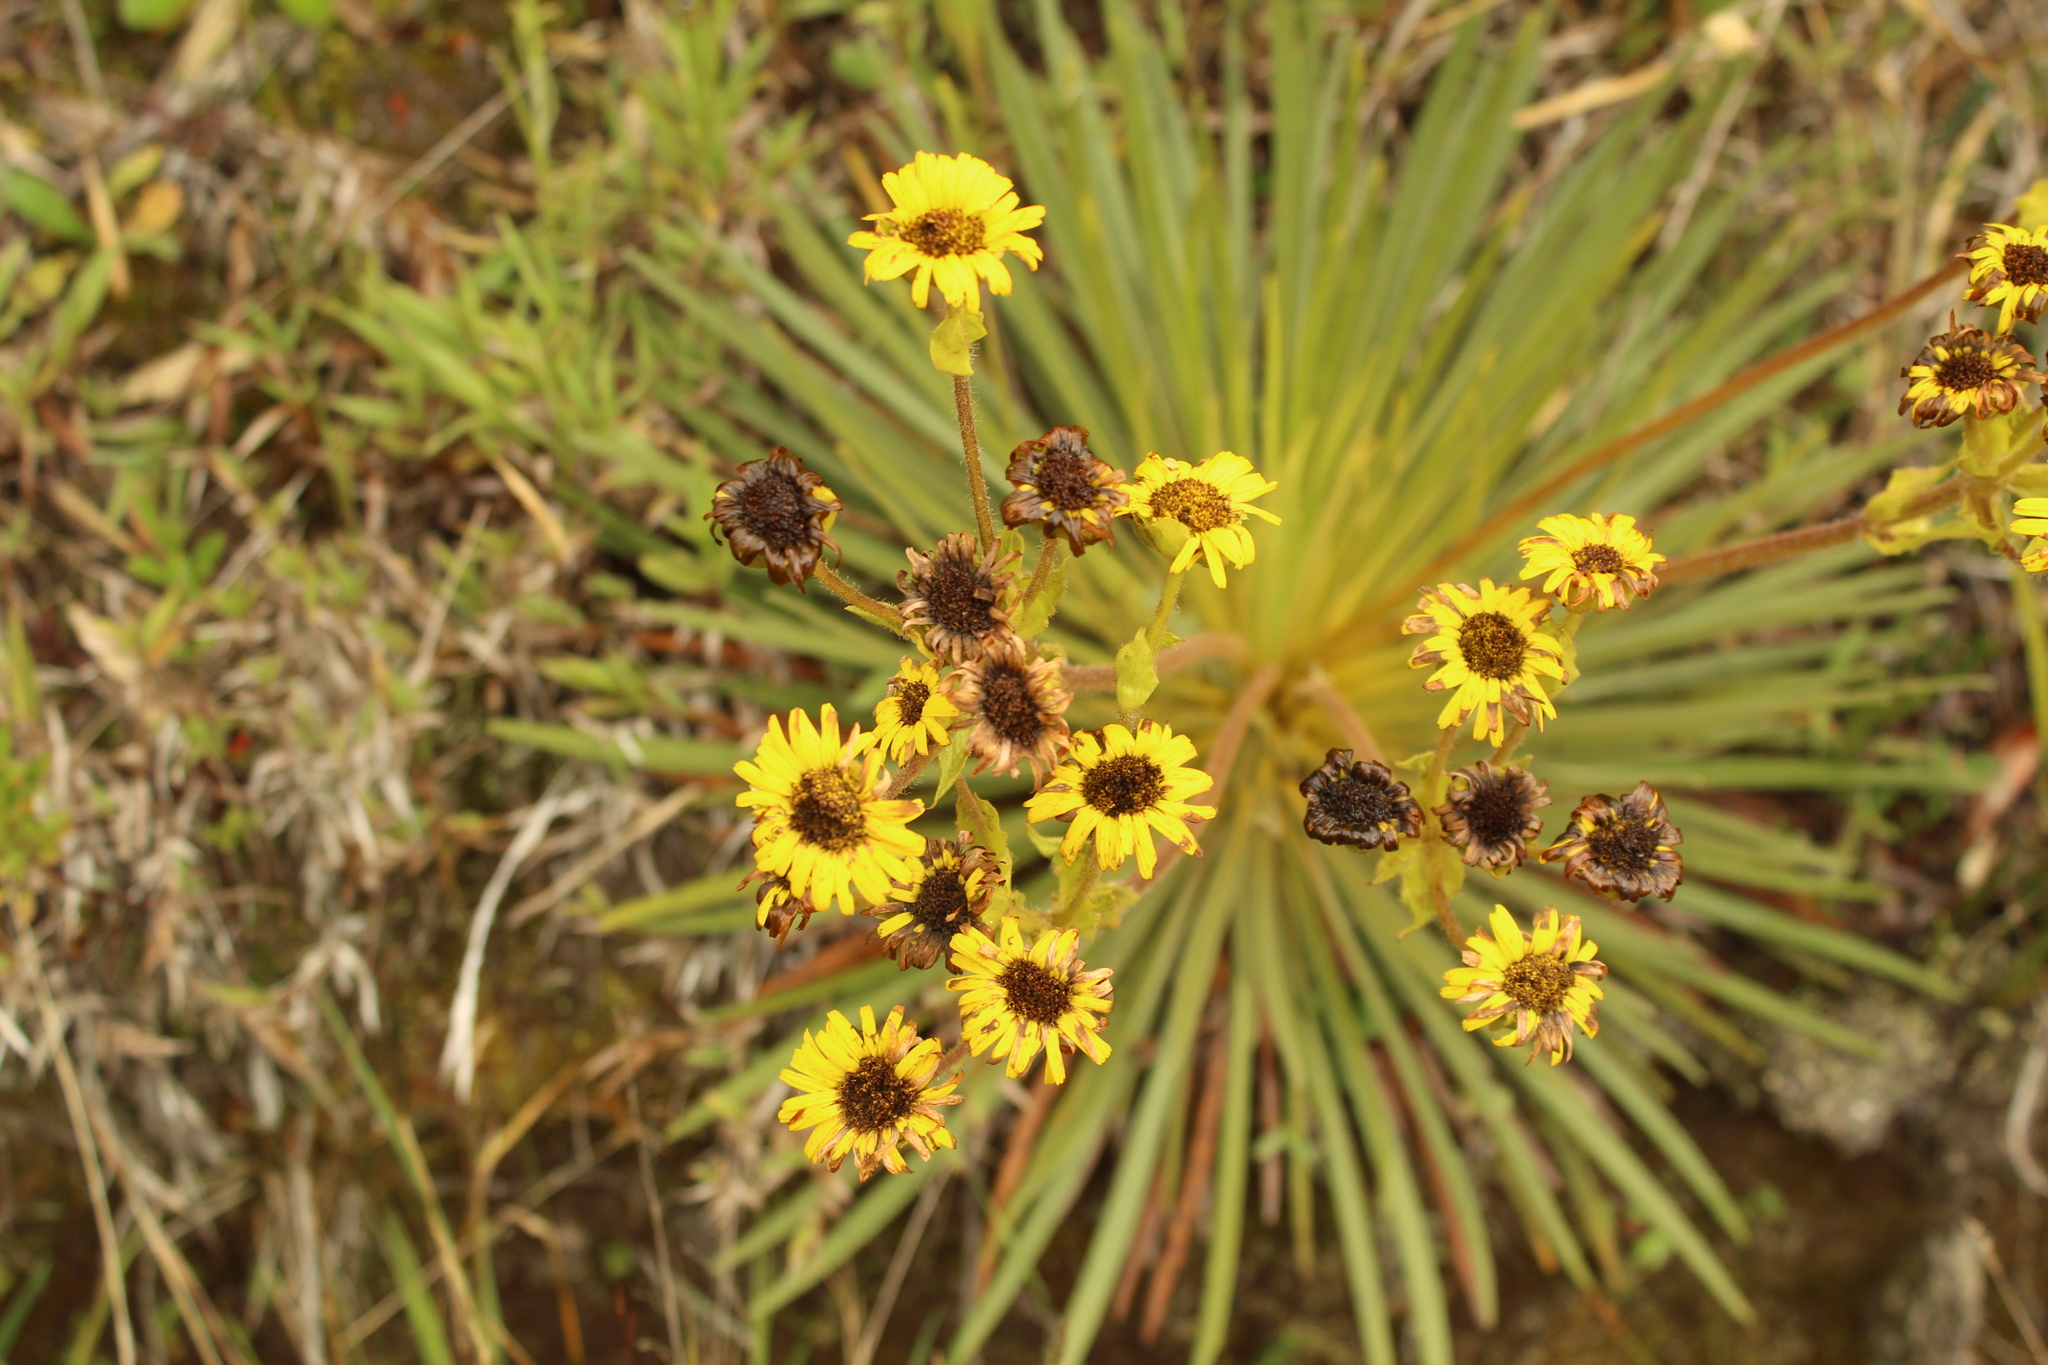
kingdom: Plantae
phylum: Tracheophyta
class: Magnoliopsida
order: Asterales
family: Asteraceae
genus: Espeletia
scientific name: Espeletia glandulosa
